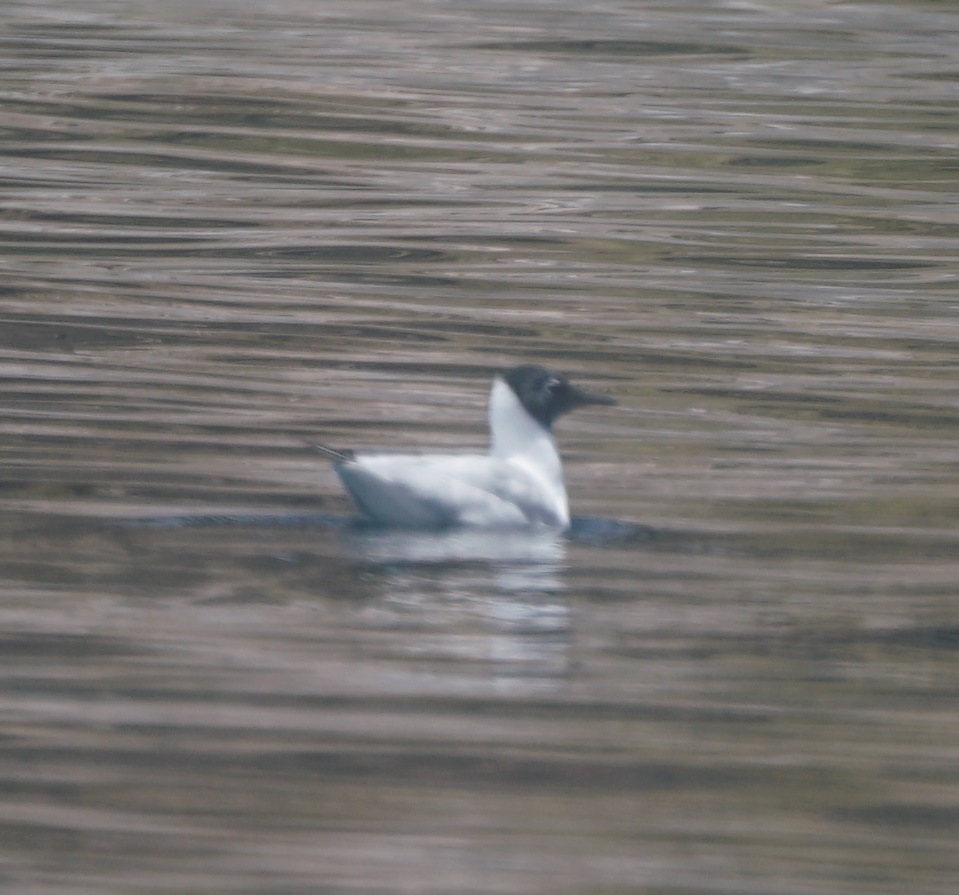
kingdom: Animalia
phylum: Chordata
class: Aves
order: Charadriiformes
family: Laridae
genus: Chroicocephalus
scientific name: Chroicocephalus serranus
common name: Andean gull
